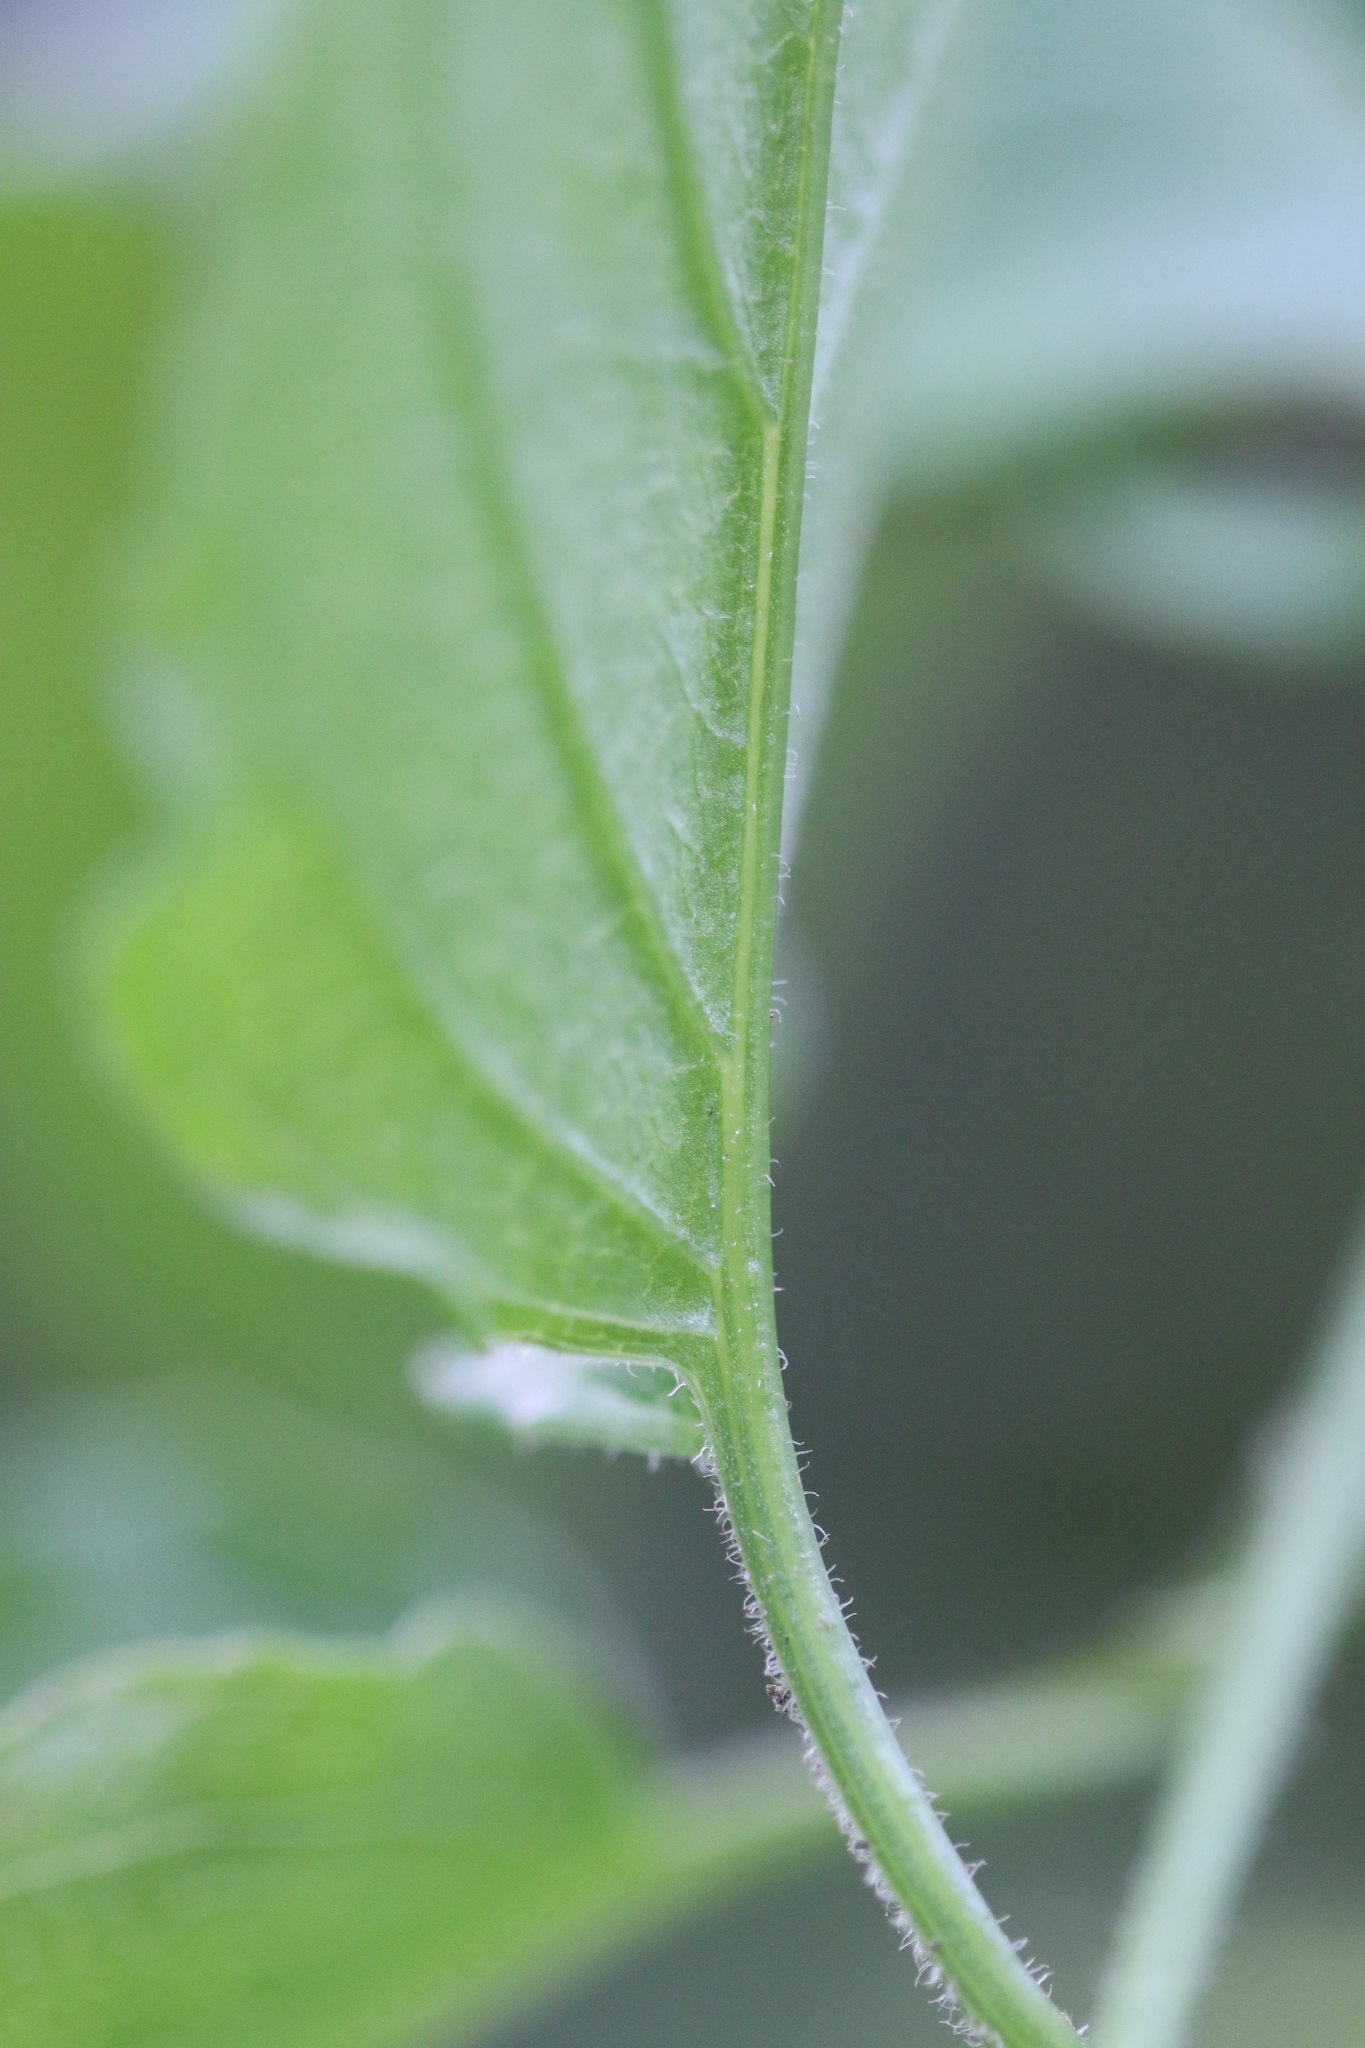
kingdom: Plantae
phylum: Tracheophyta
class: Magnoliopsida
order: Asterales
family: Asteraceae
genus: Pseudogynoxys
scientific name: Pseudogynoxys engleri
